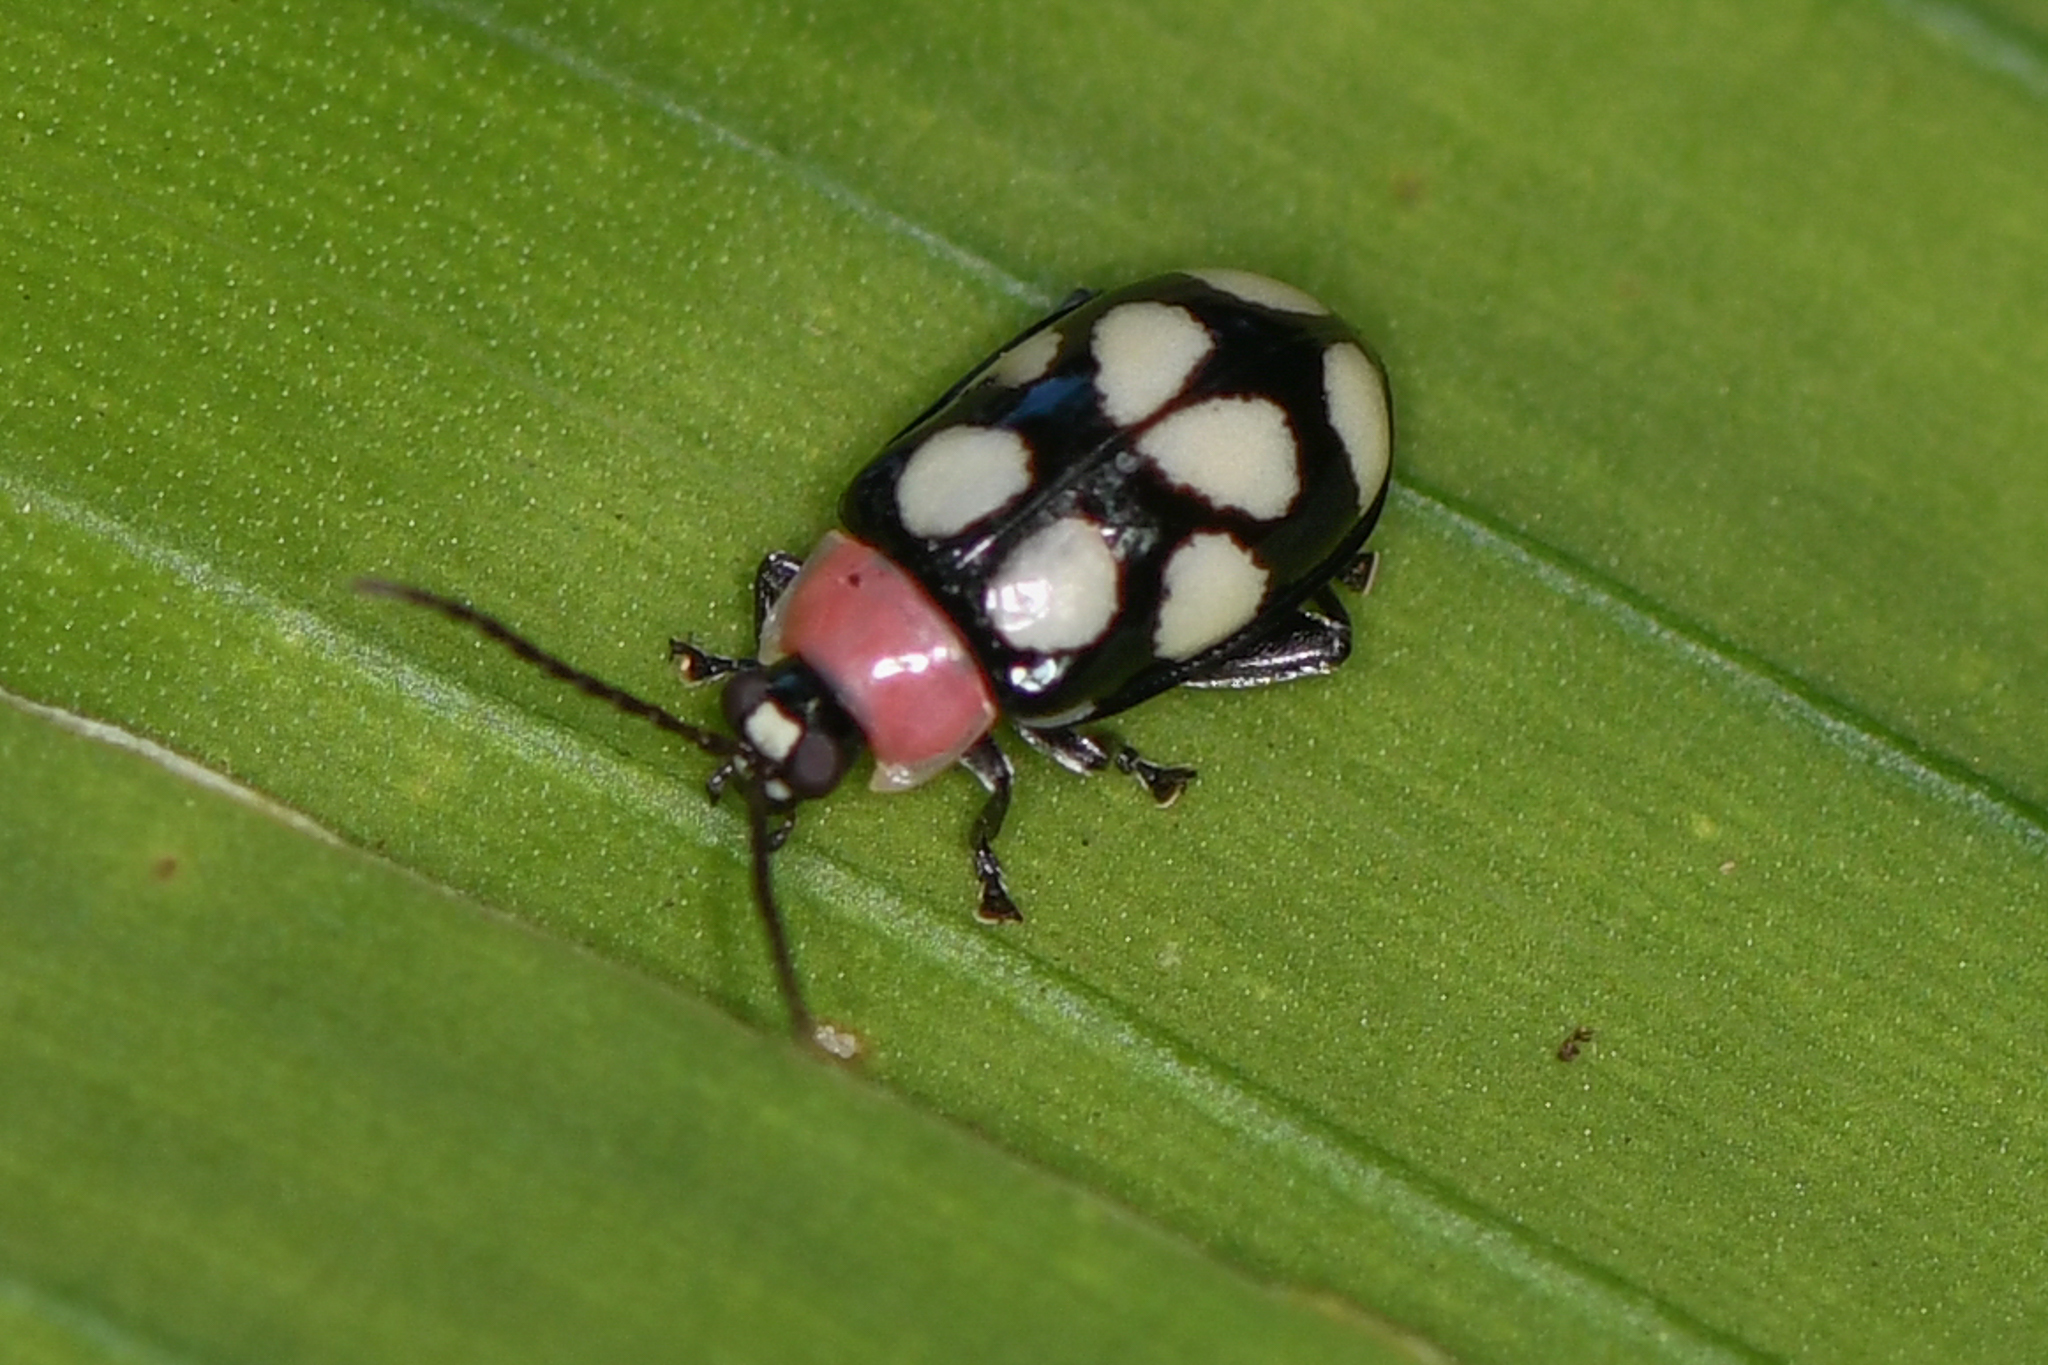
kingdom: Animalia
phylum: Arthropoda
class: Insecta
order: Coleoptera
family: Chrysomelidae
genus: Omophoita
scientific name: Omophoita aequinoctialis
